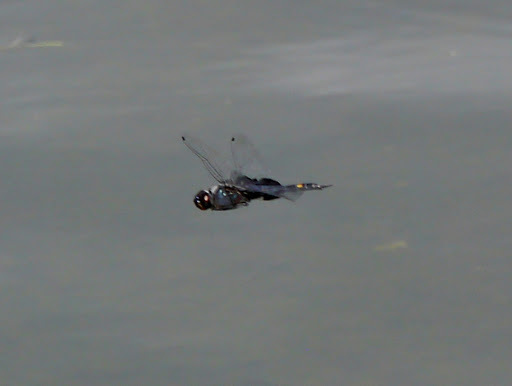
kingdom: Animalia
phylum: Arthropoda
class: Insecta
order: Odonata
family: Libellulidae
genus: Tramea
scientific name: Tramea lacerata
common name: Black saddlebags
